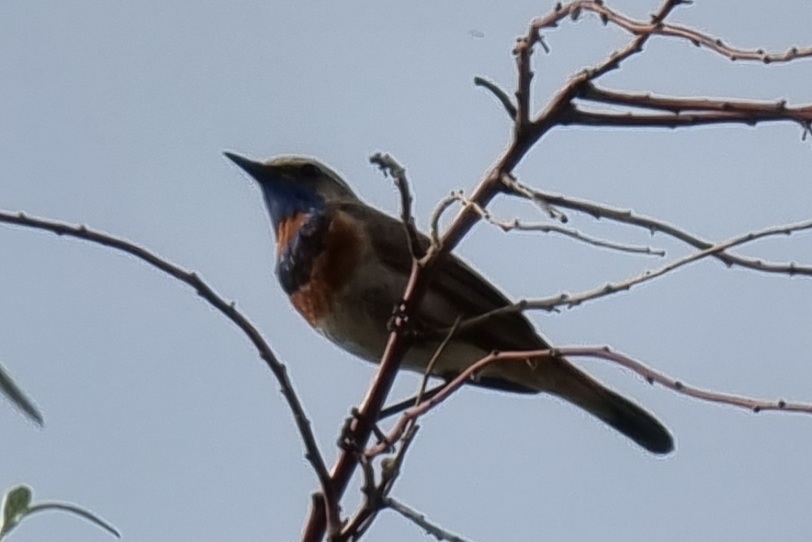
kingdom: Animalia
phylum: Chordata
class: Aves
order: Passeriformes
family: Muscicapidae
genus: Luscinia
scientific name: Luscinia svecica
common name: Bluethroat
